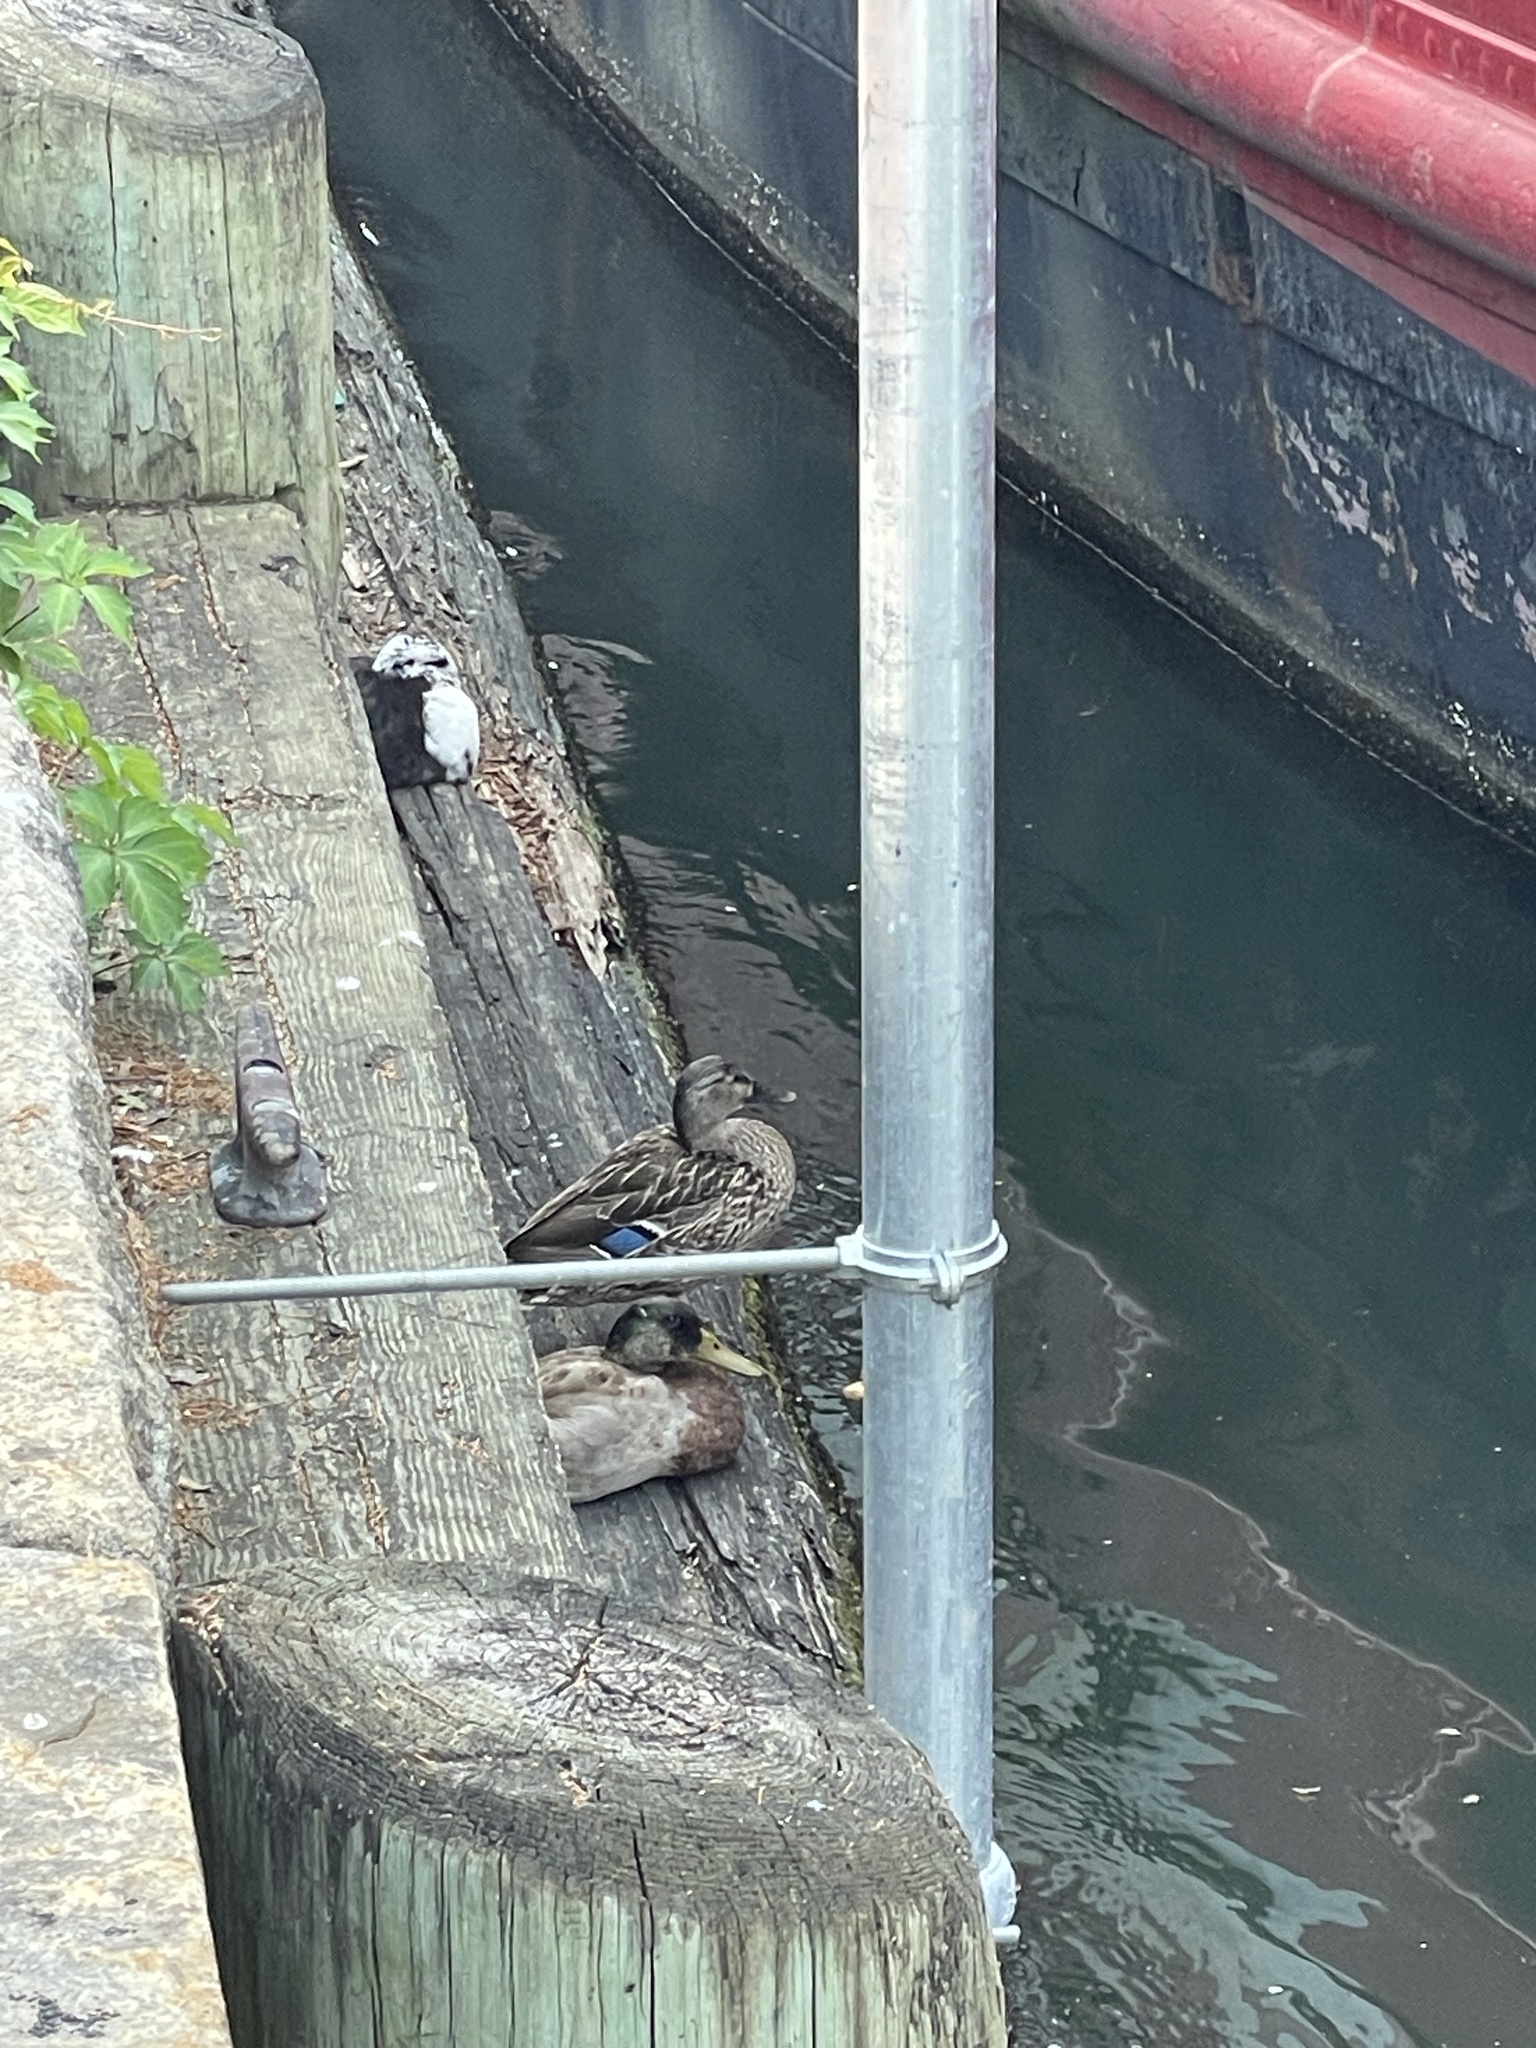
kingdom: Animalia
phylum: Chordata
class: Aves
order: Anseriformes
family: Anatidae
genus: Anas
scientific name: Anas platyrhynchos
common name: Mallard
